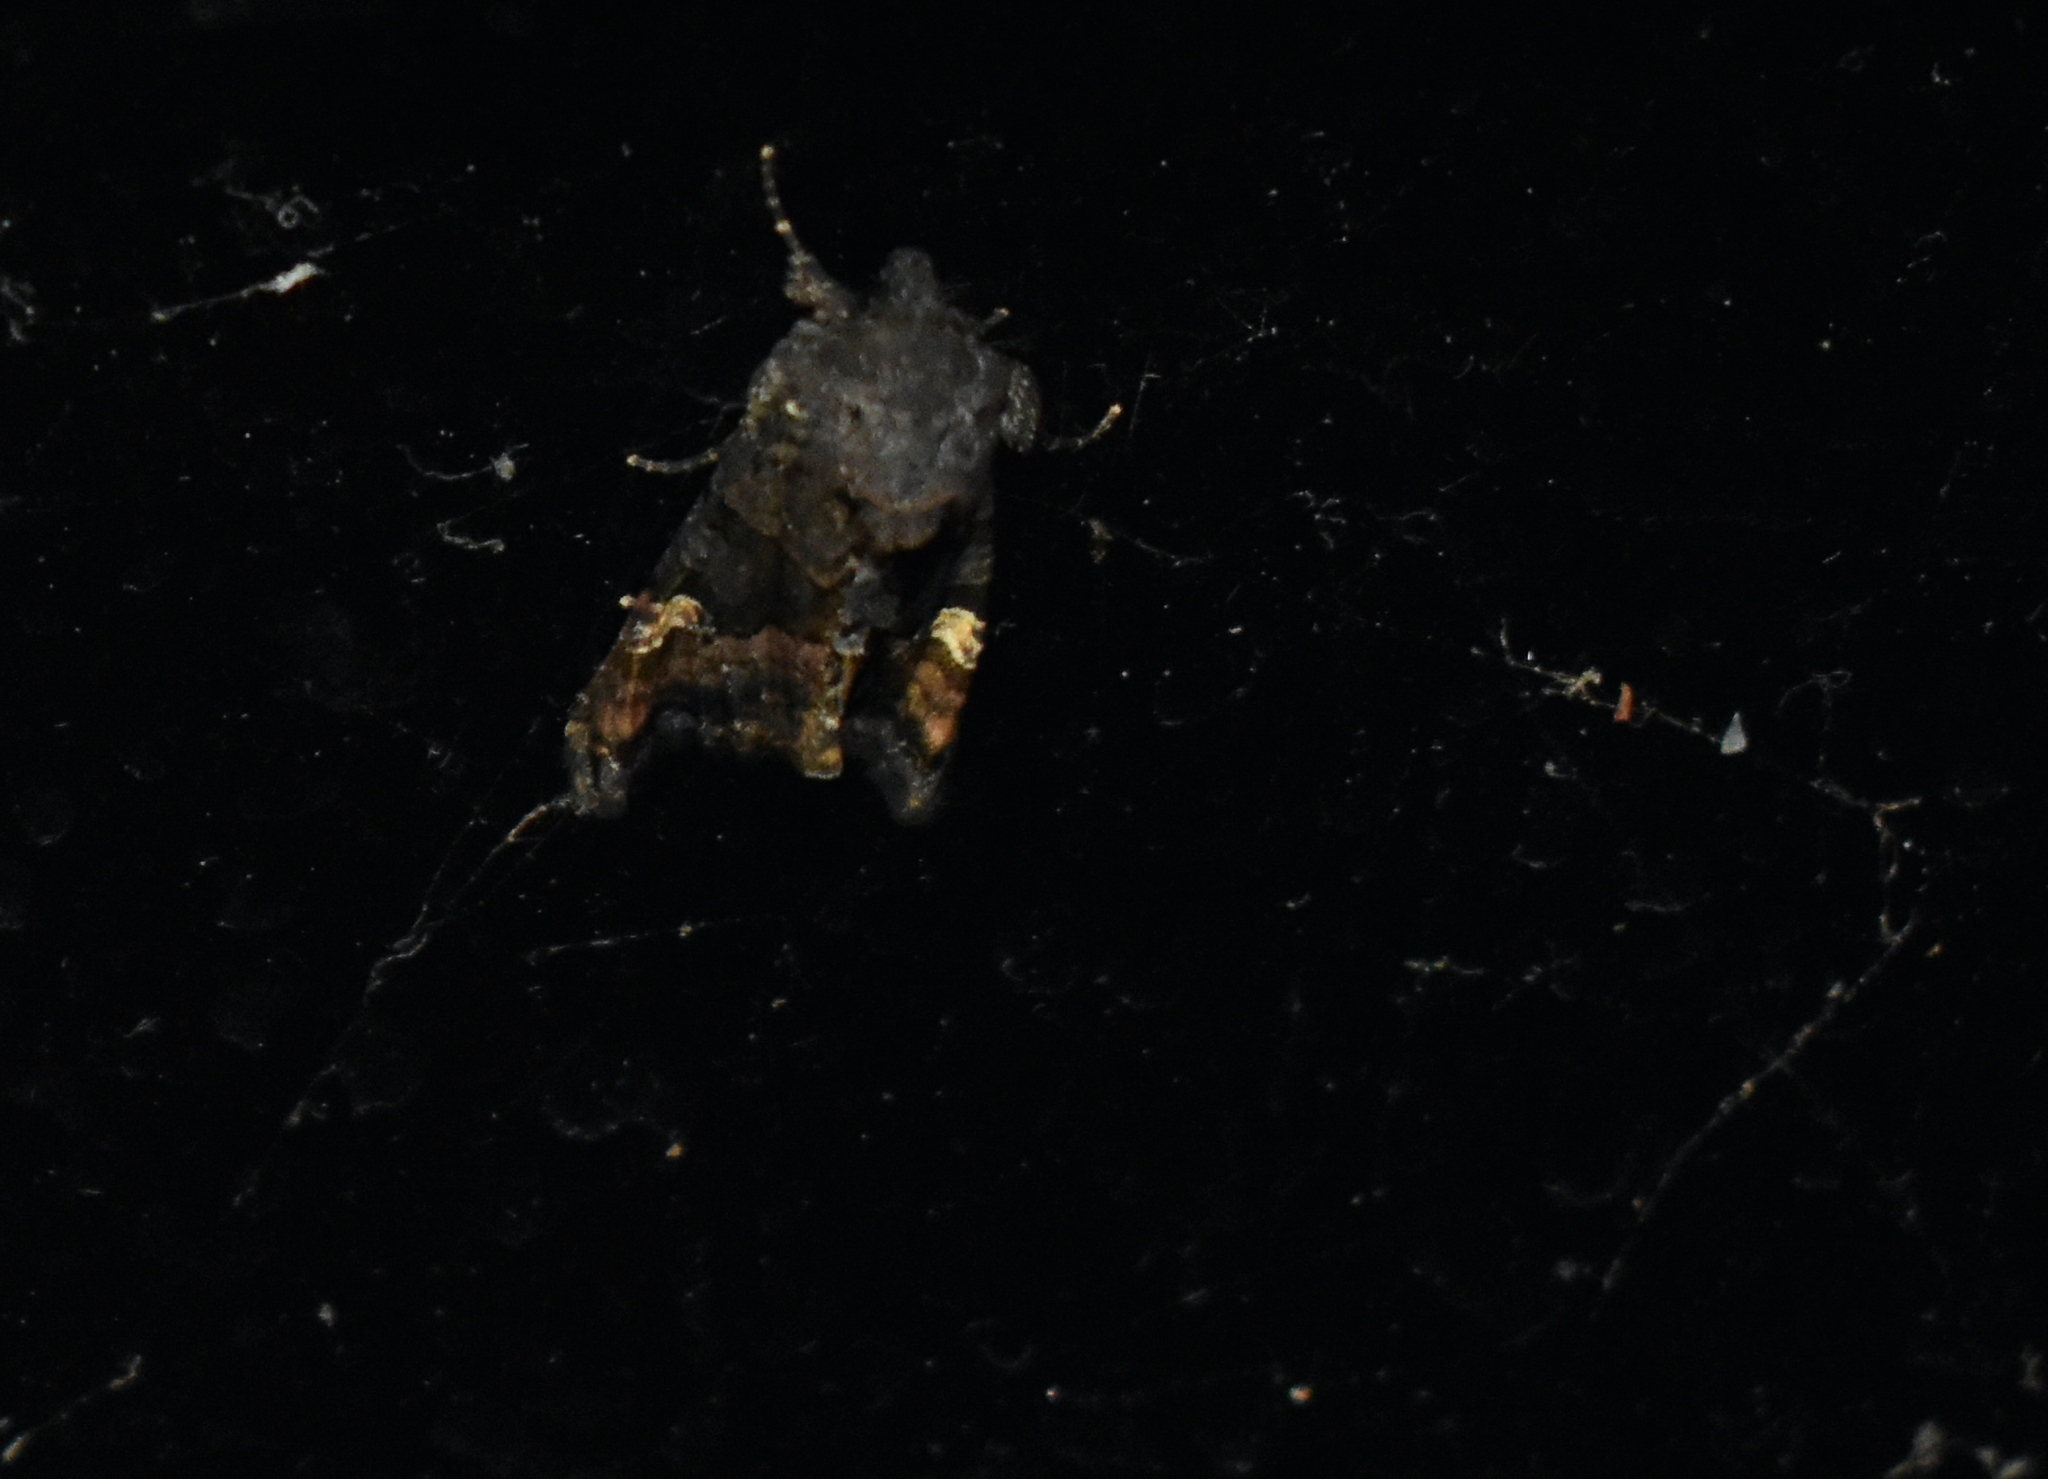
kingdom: Animalia
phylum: Arthropoda
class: Insecta
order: Lepidoptera
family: Noctuidae
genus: Euplexia
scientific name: Euplexia benesimilis
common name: American angle shades
